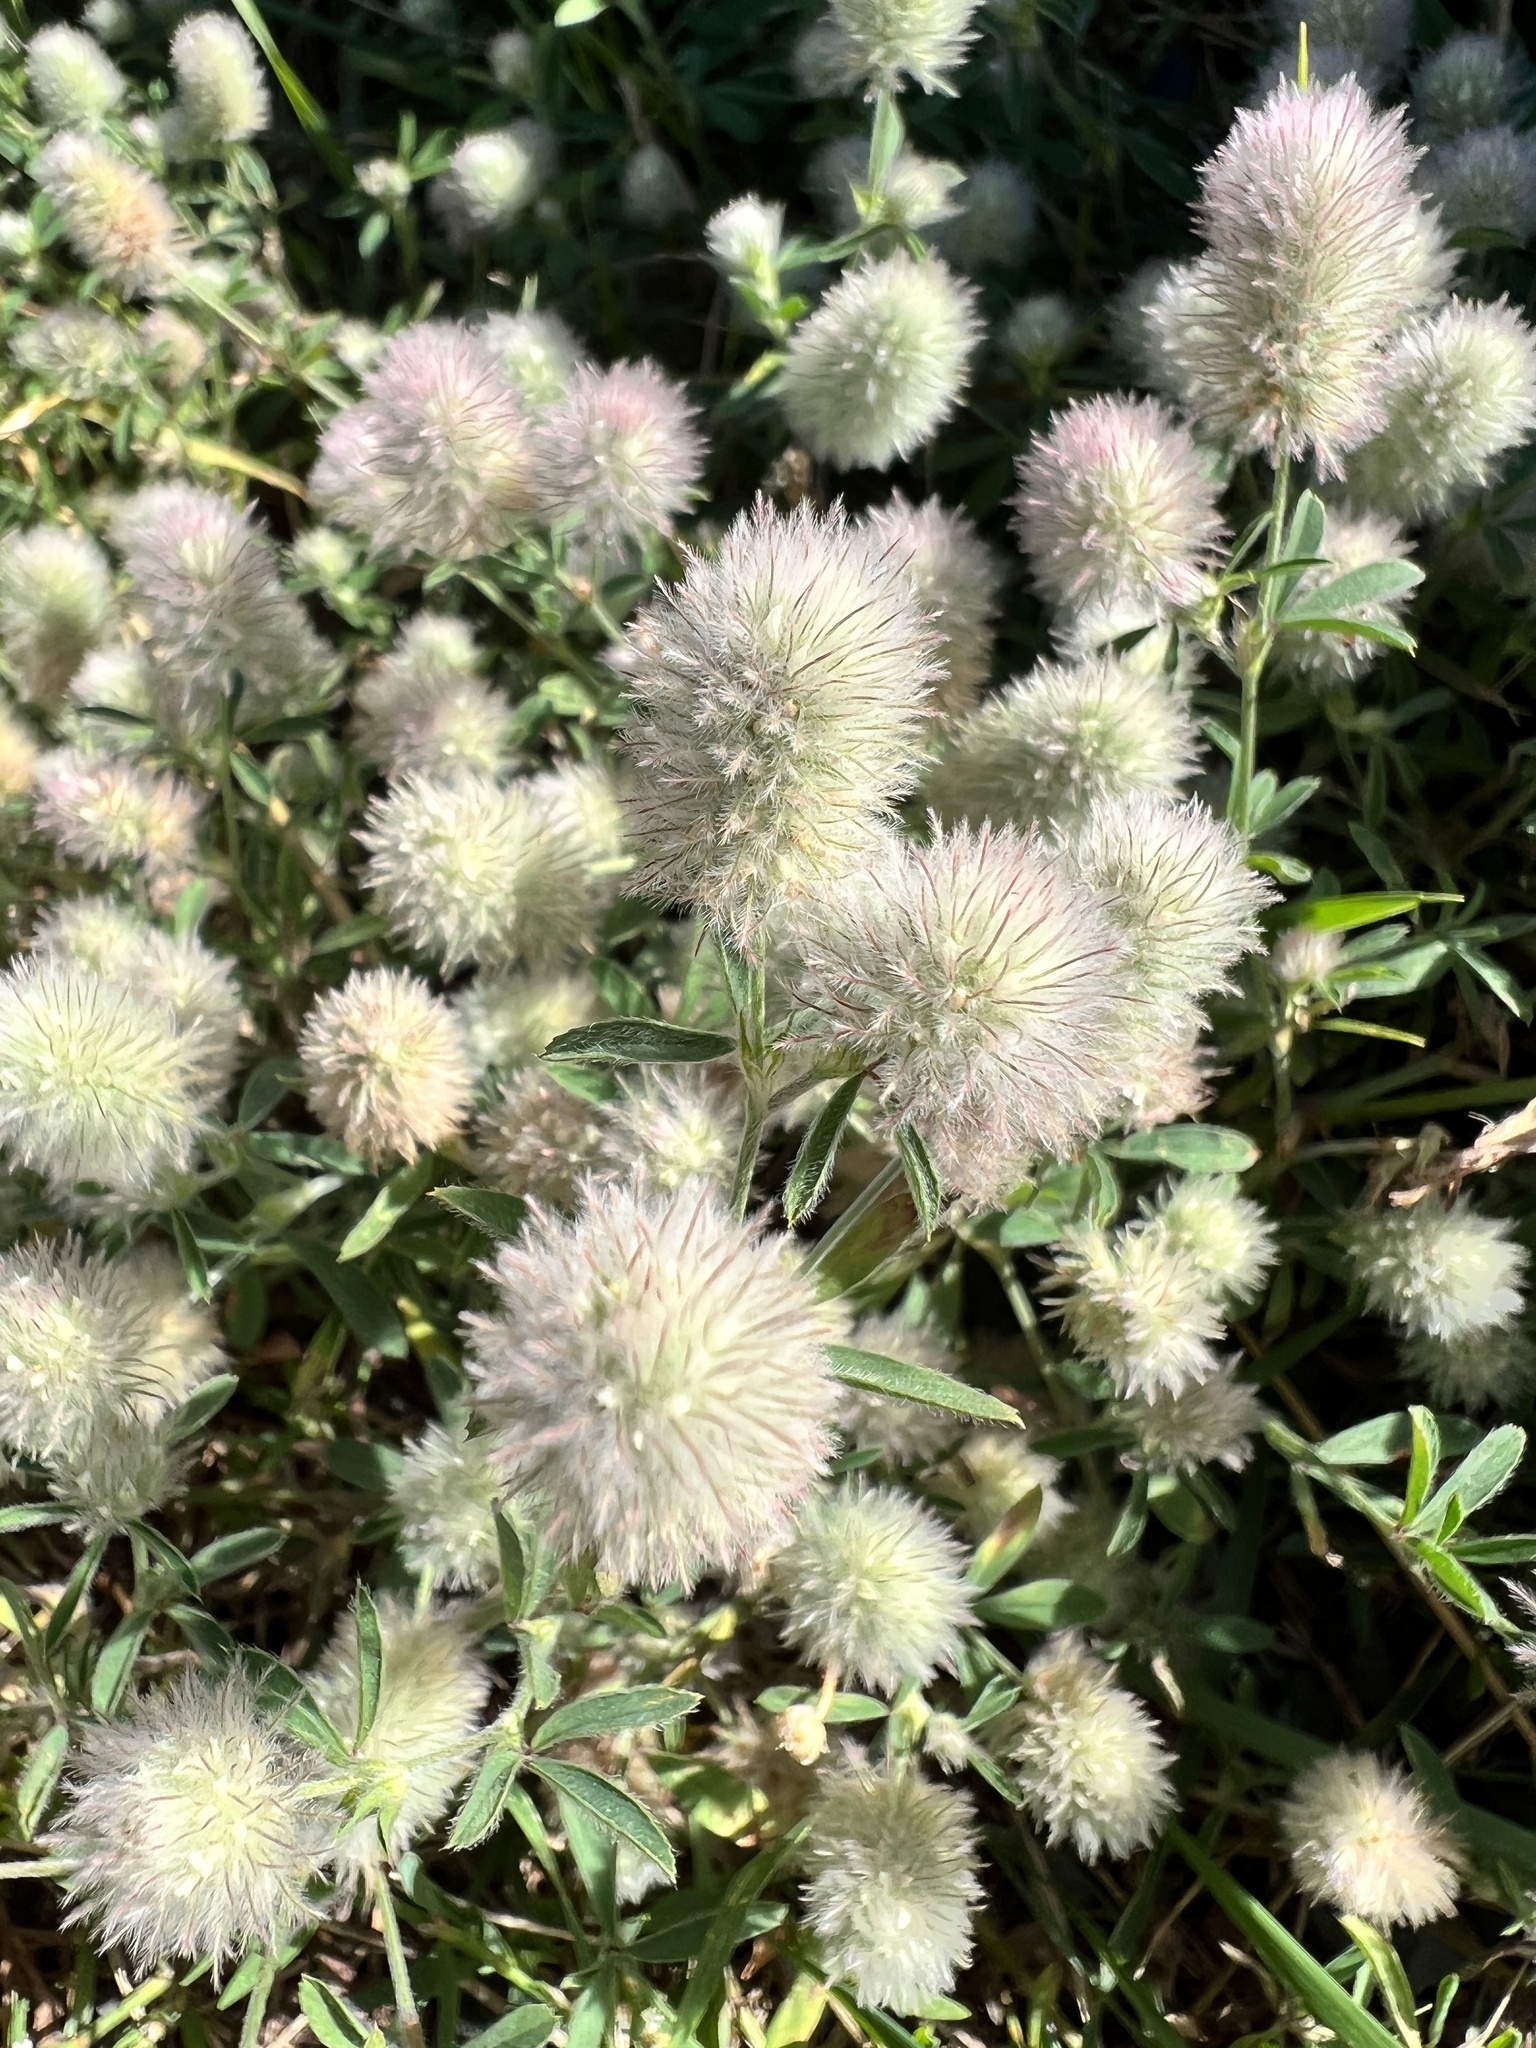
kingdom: Plantae
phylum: Tracheophyta
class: Magnoliopsida
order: Fabales
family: Fabaceae
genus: Trifolium
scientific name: Trifolium arvense
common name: Hare's-foot clover
